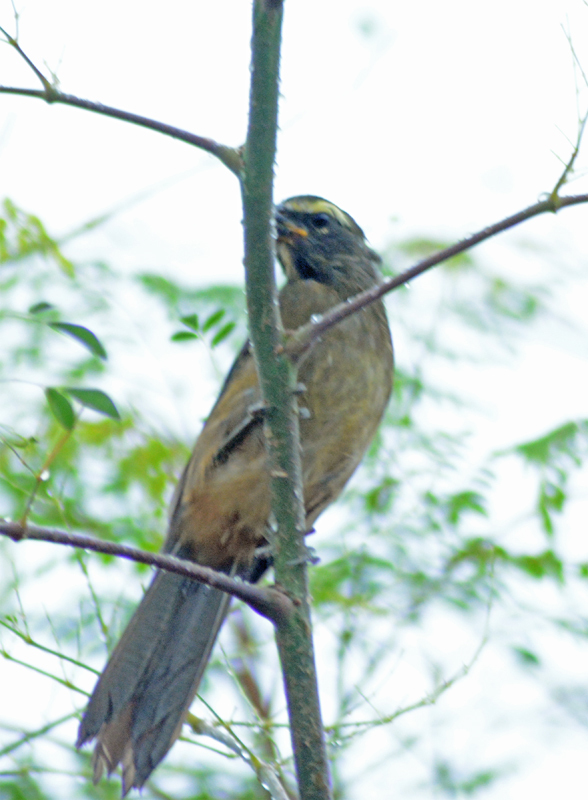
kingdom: Animalia
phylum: Chordata
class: Aves
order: Passeriformes
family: Thraupidae
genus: Saltator
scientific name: Saltator grandis
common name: Cinnamon-bellied saltator
